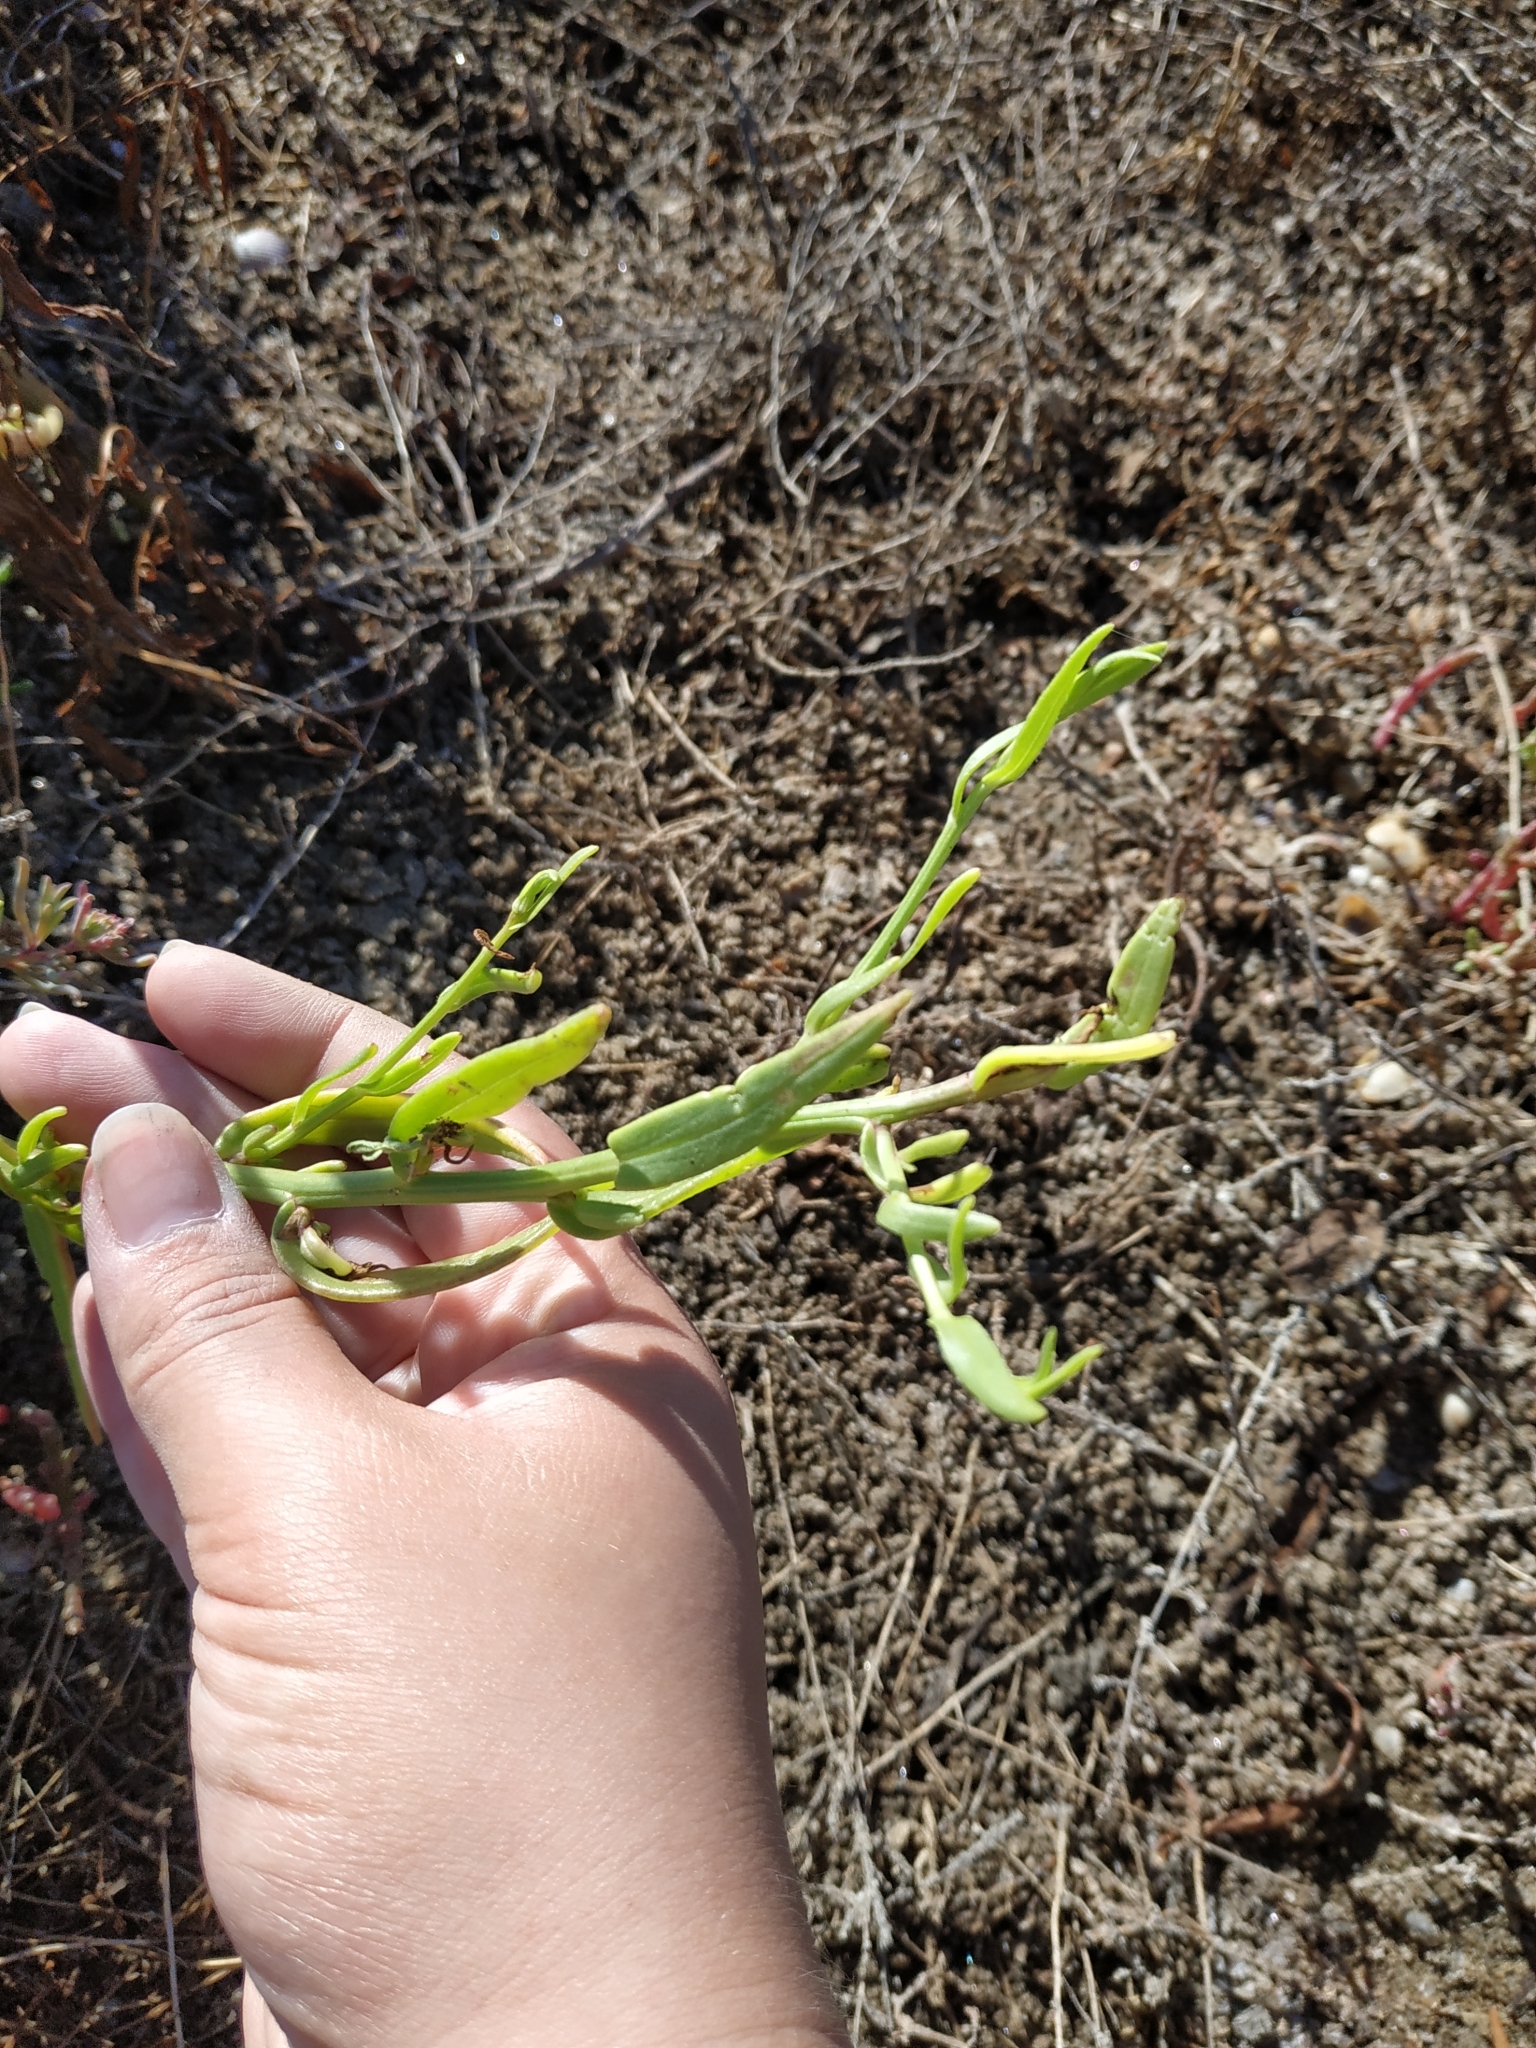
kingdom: Plantae
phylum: Tracheophyta
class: Magnoliopsida
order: Asterales
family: Asteraceae
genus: Tripolium
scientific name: Tripolium pannonicum
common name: Sea aster
